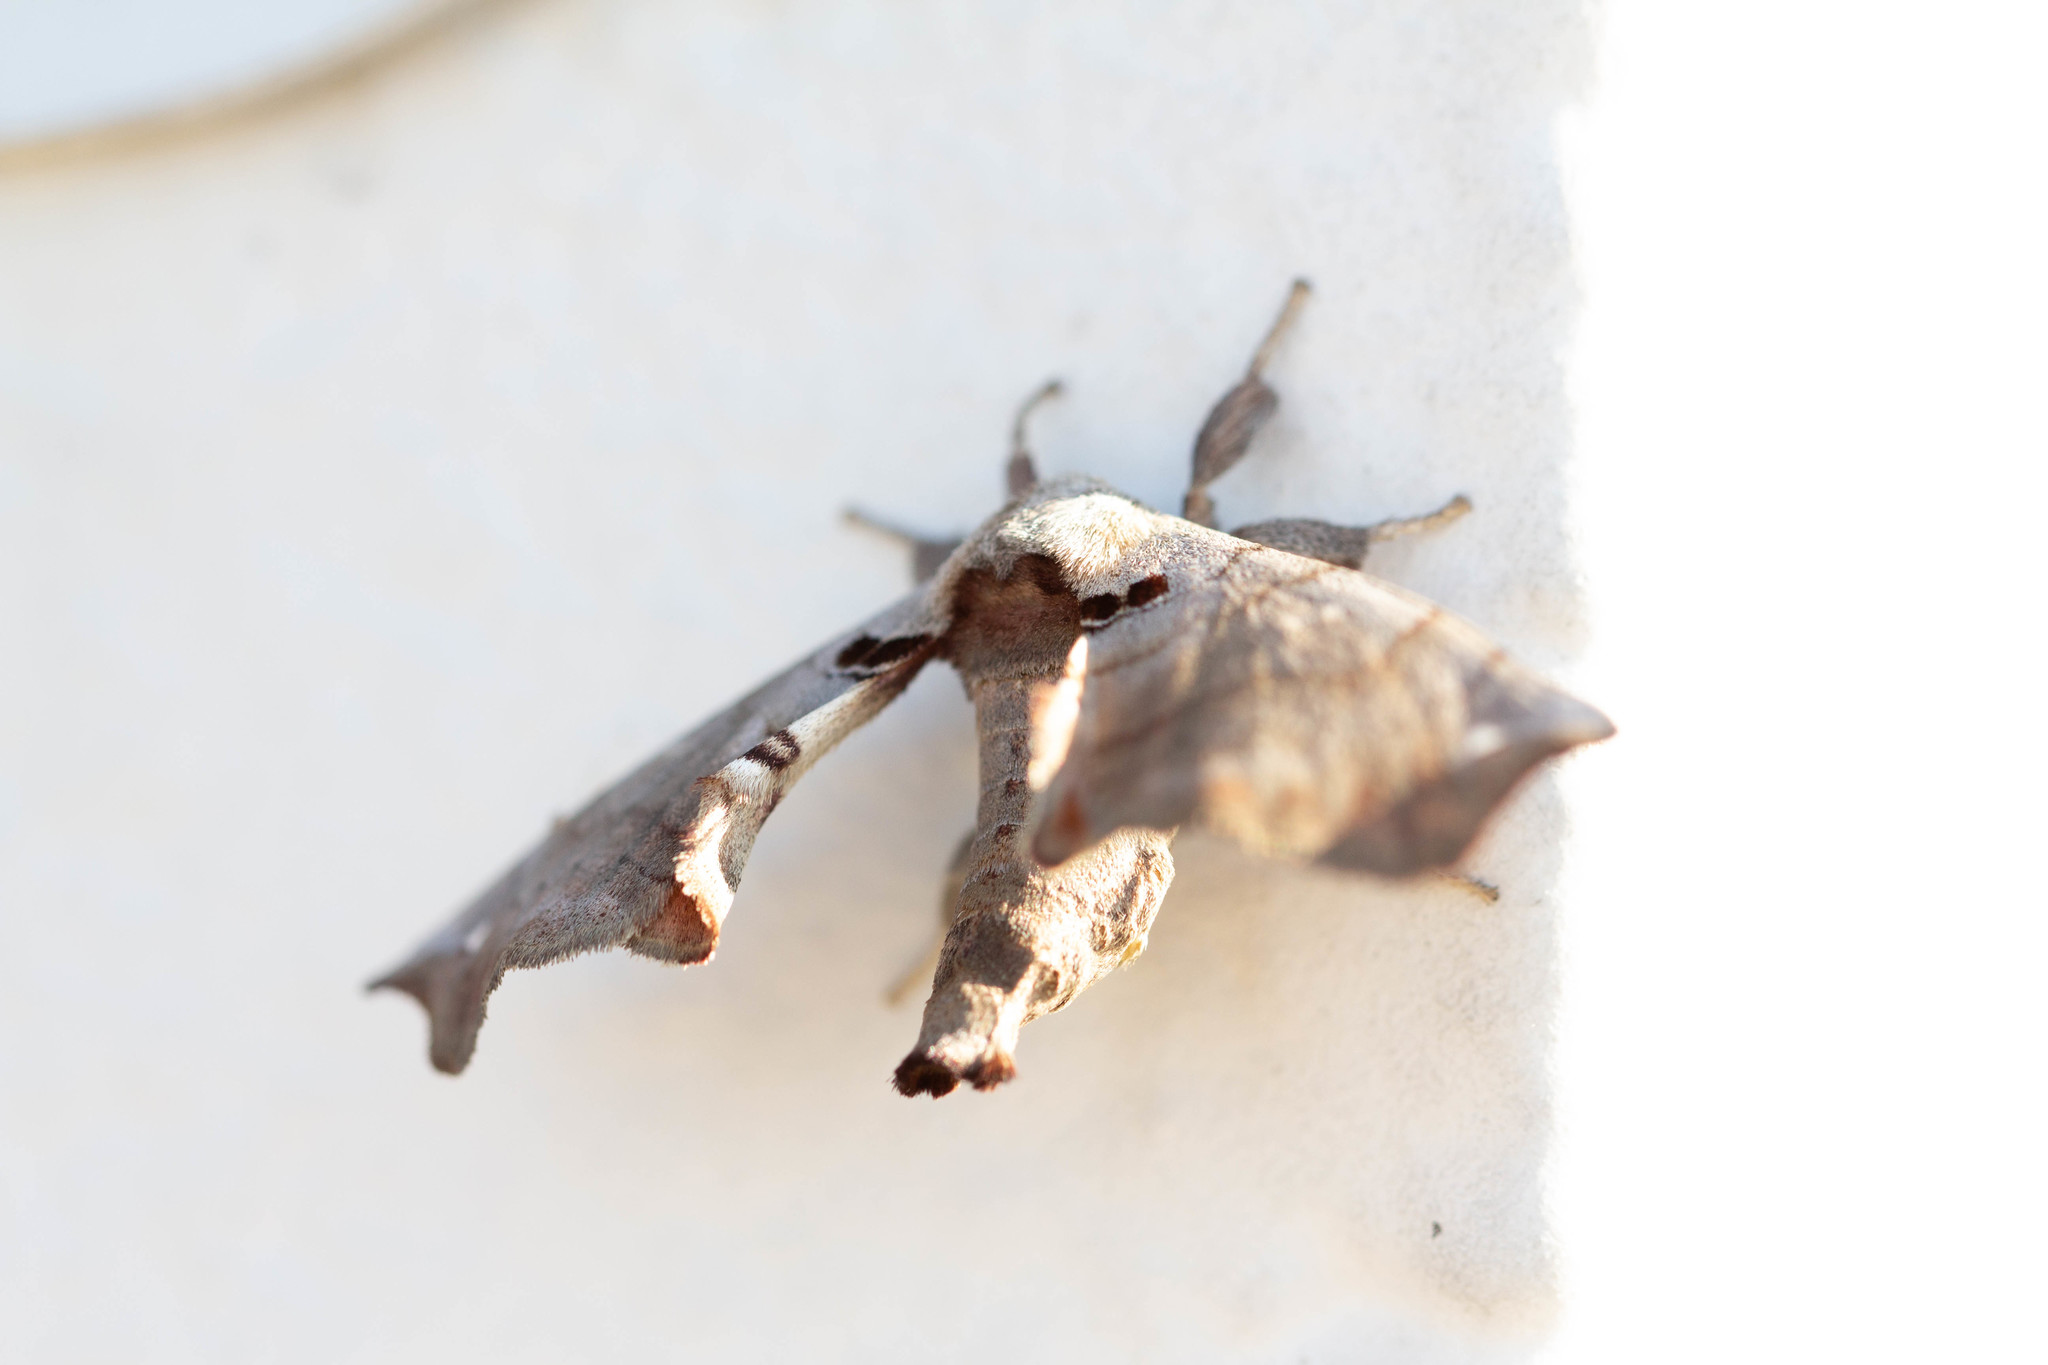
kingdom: Animalia
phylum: Arthropoda
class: Insecta
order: Lepidoptera
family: Apatelodidae
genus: Hygrochroa
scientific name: Hygrochroa Apatelodes torrefacta
